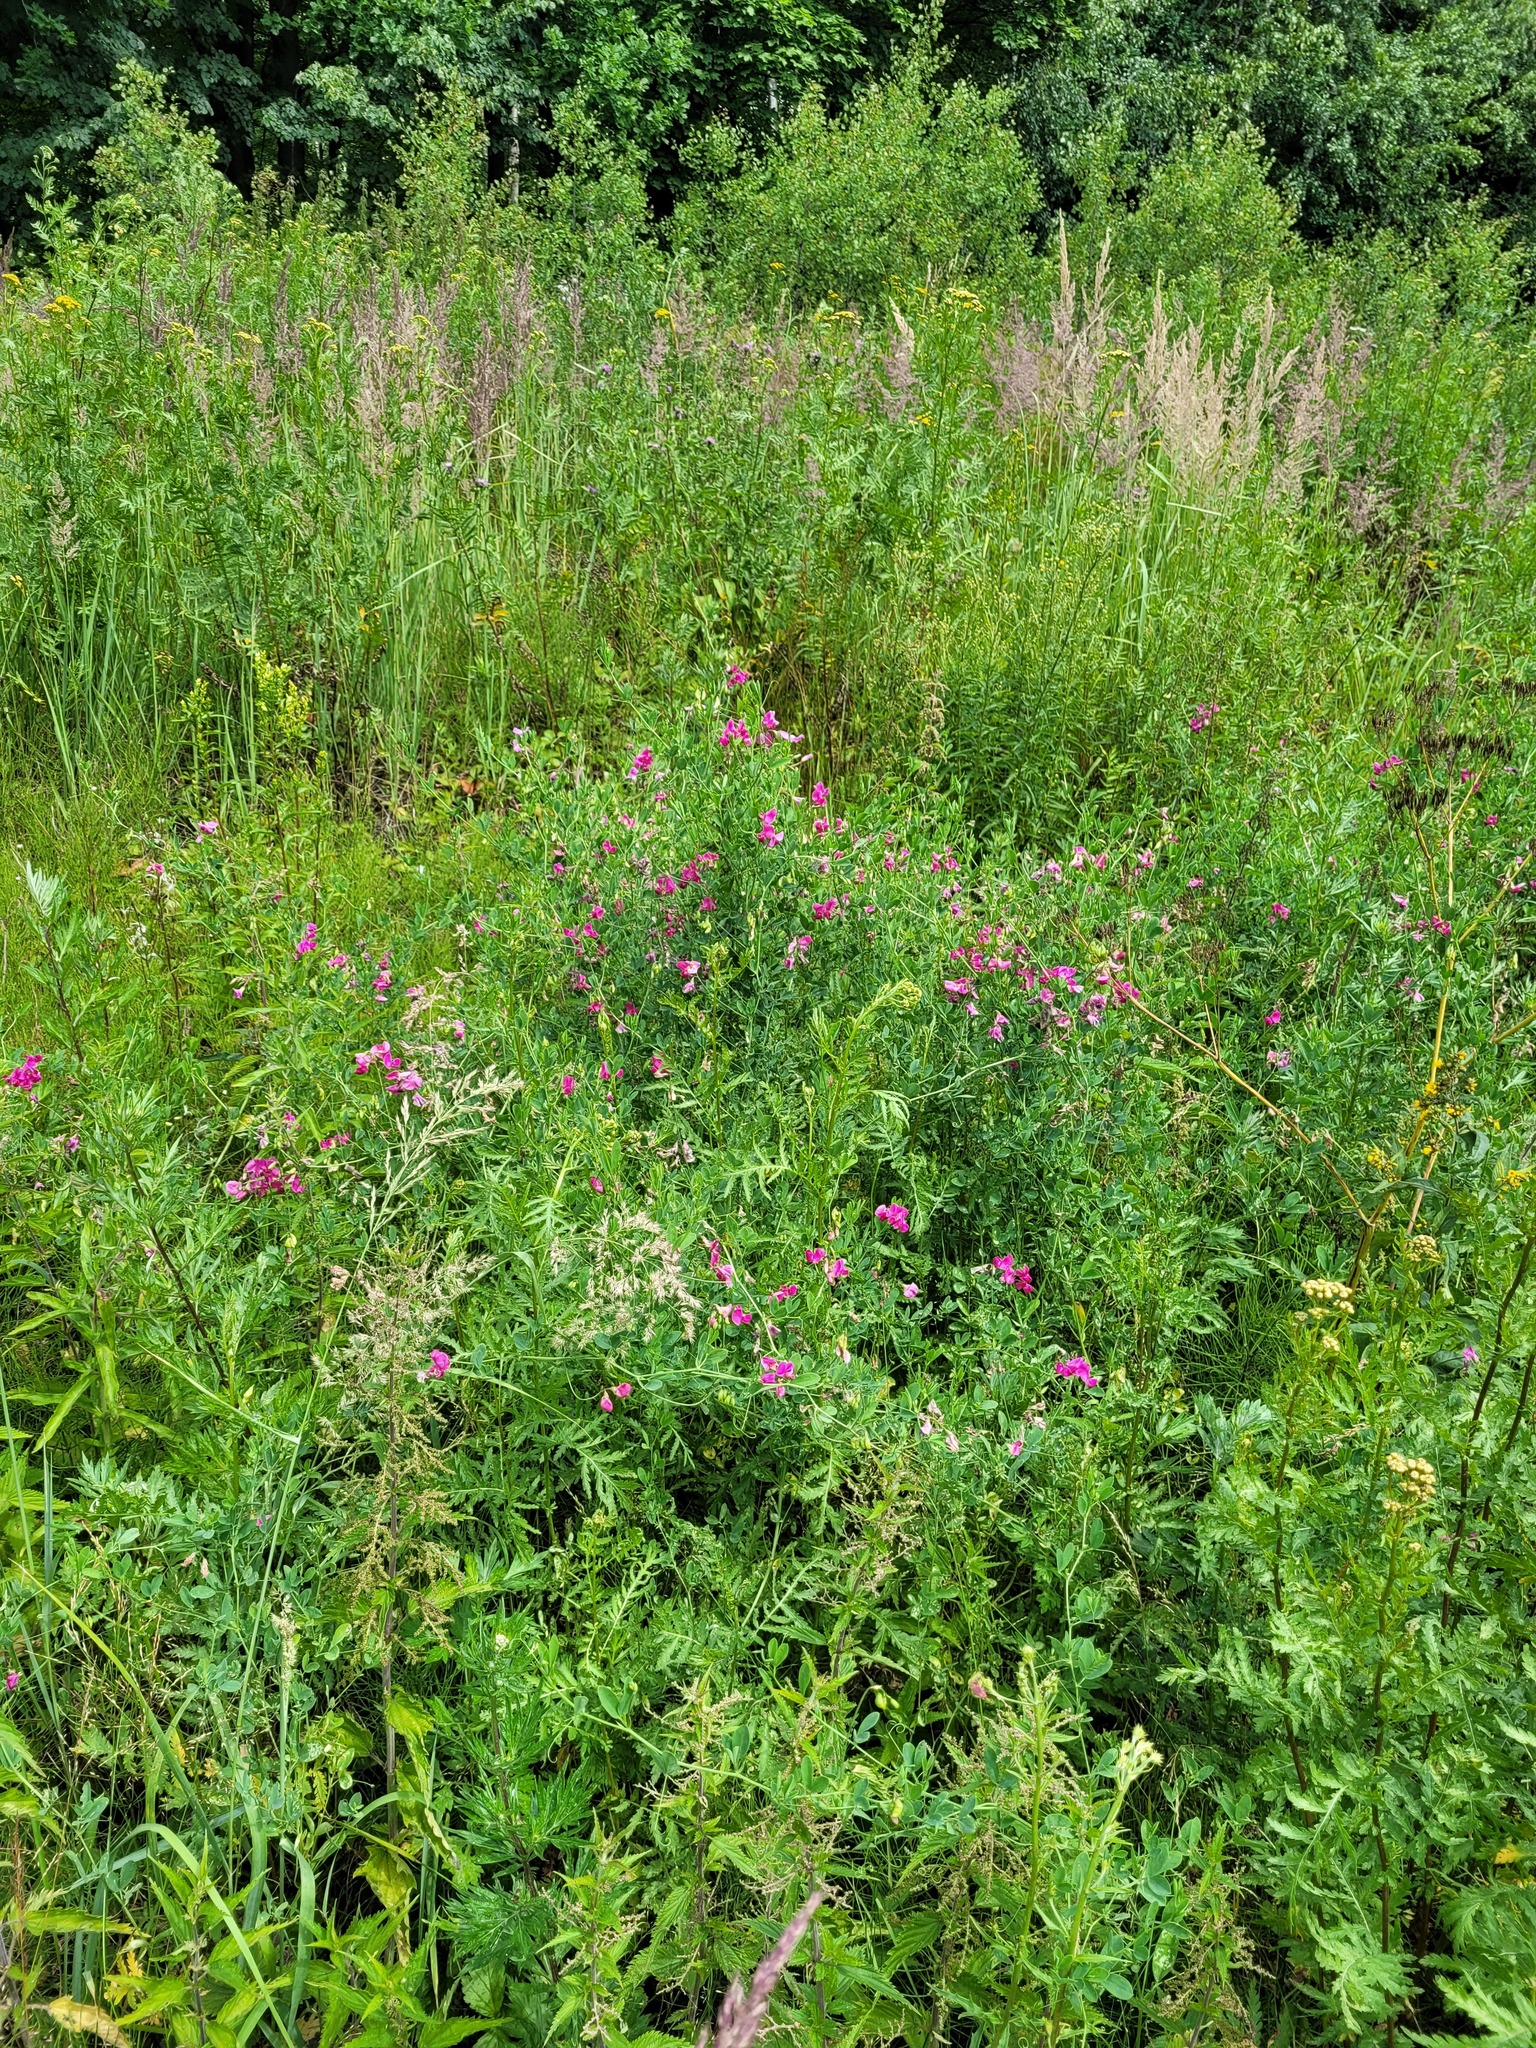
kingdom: Plantae
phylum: Tracheophyta
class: Magnoliopsida
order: Fabales
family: Fabaceae
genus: Lathyrus
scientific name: Lathyrus tuberosus
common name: Tuberous pea
